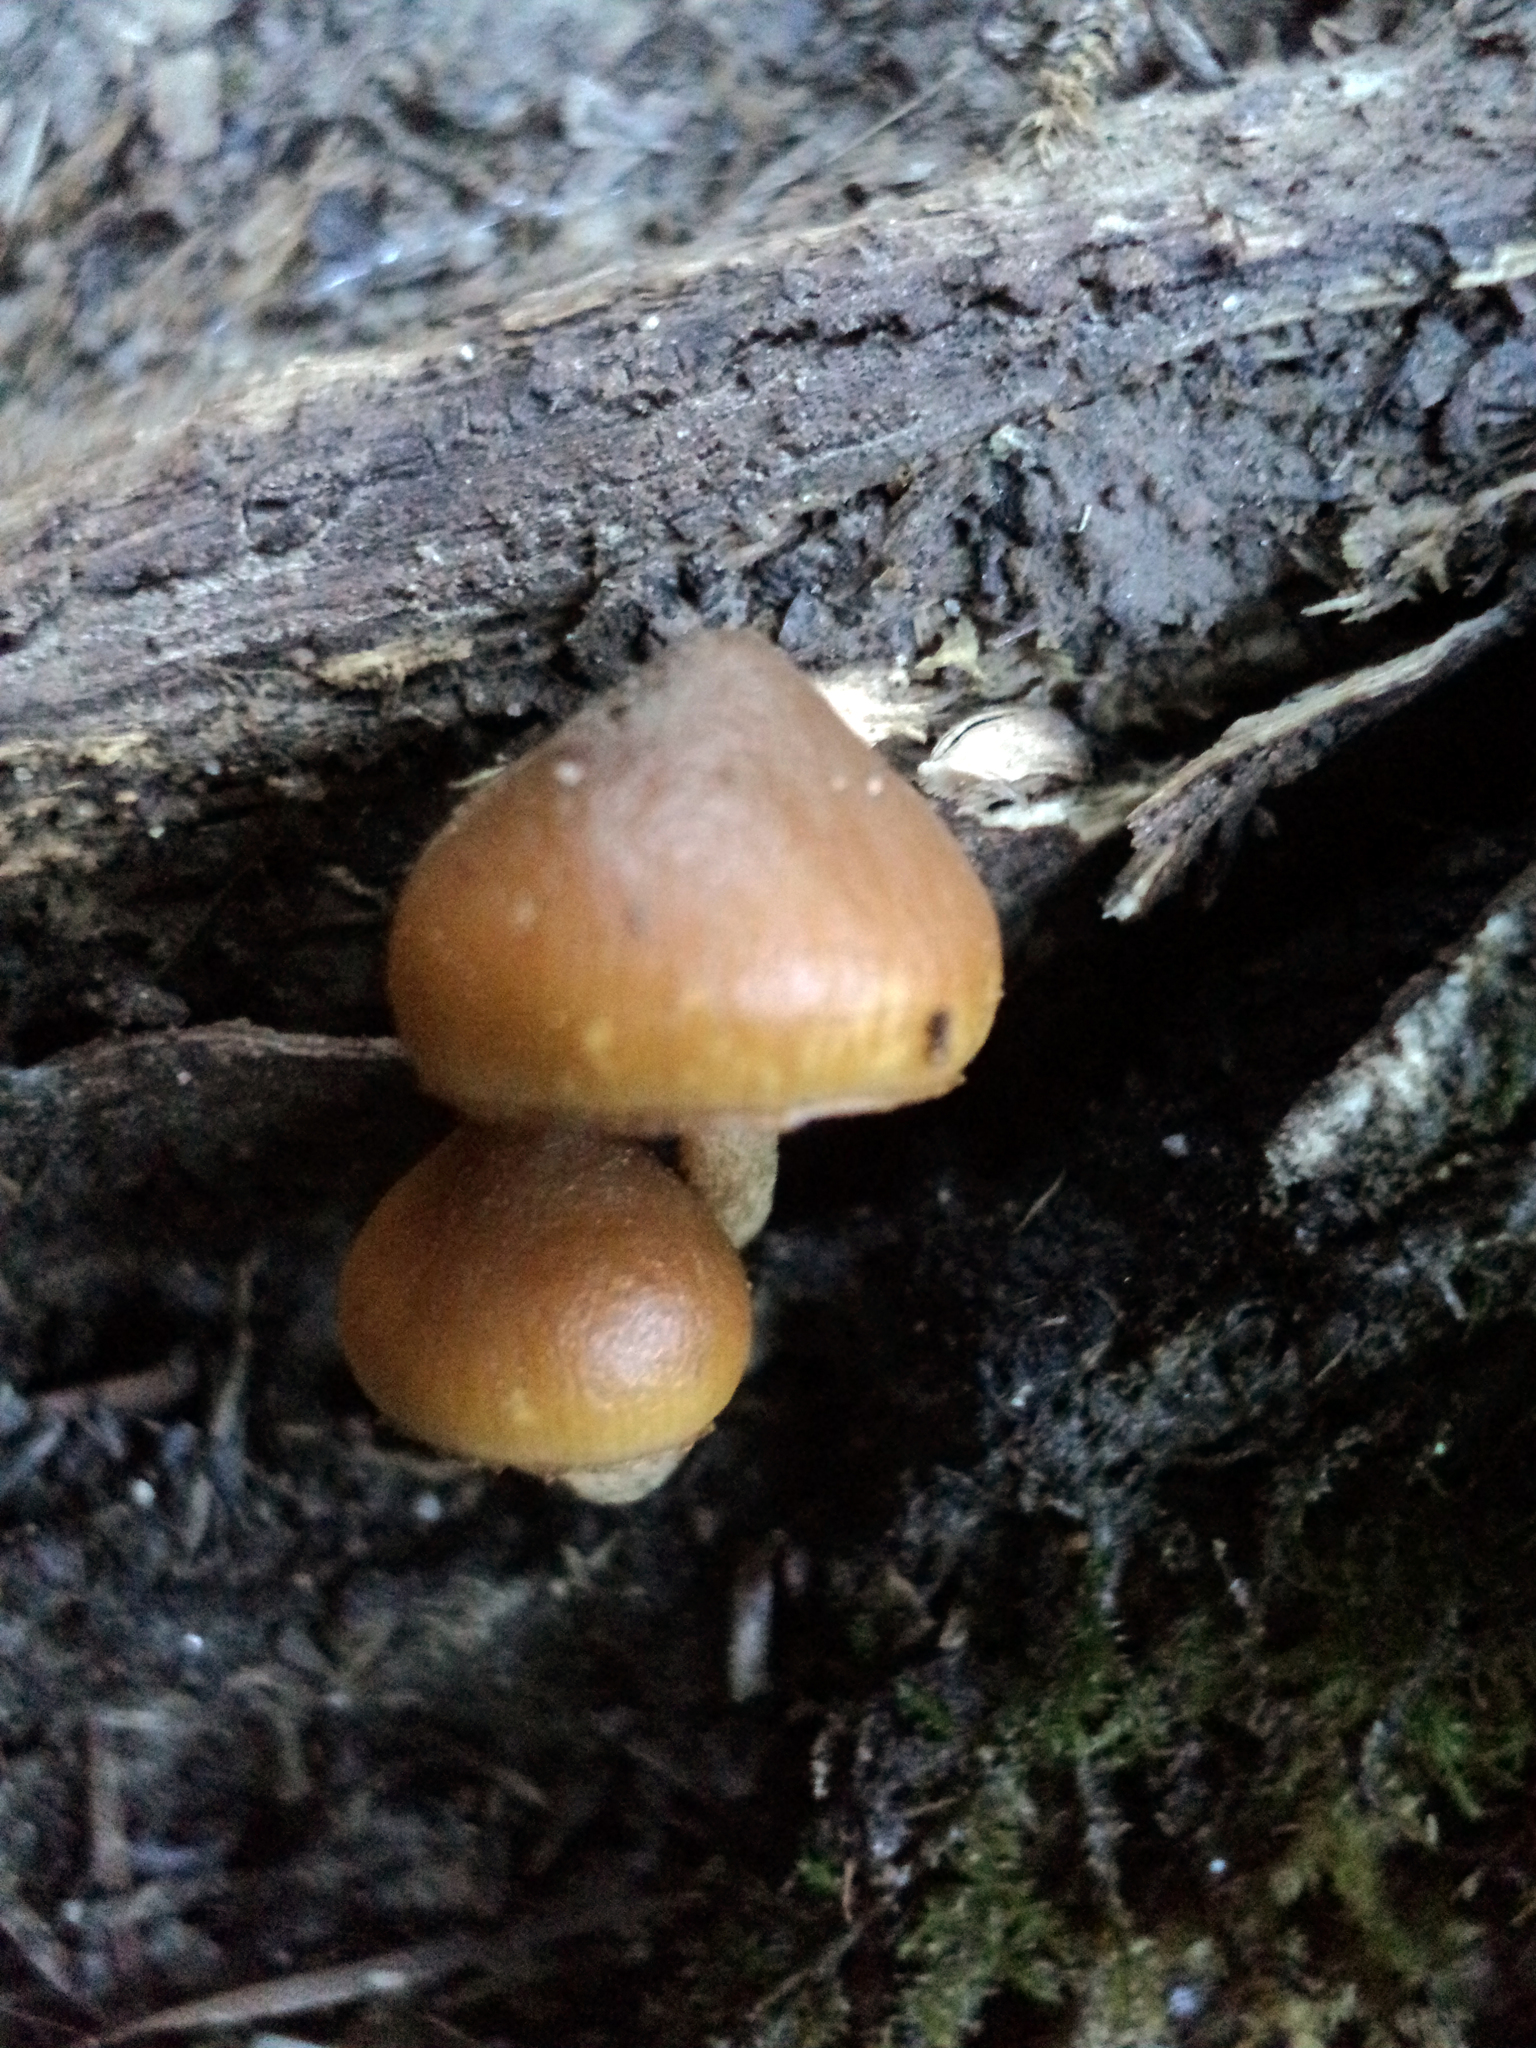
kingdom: Fungi
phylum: Basidiomycota
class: Agaricomycetes
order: Agaricales
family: Hymenogastraceae
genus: Galerina
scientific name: Galerina marginata
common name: Funeral bell
